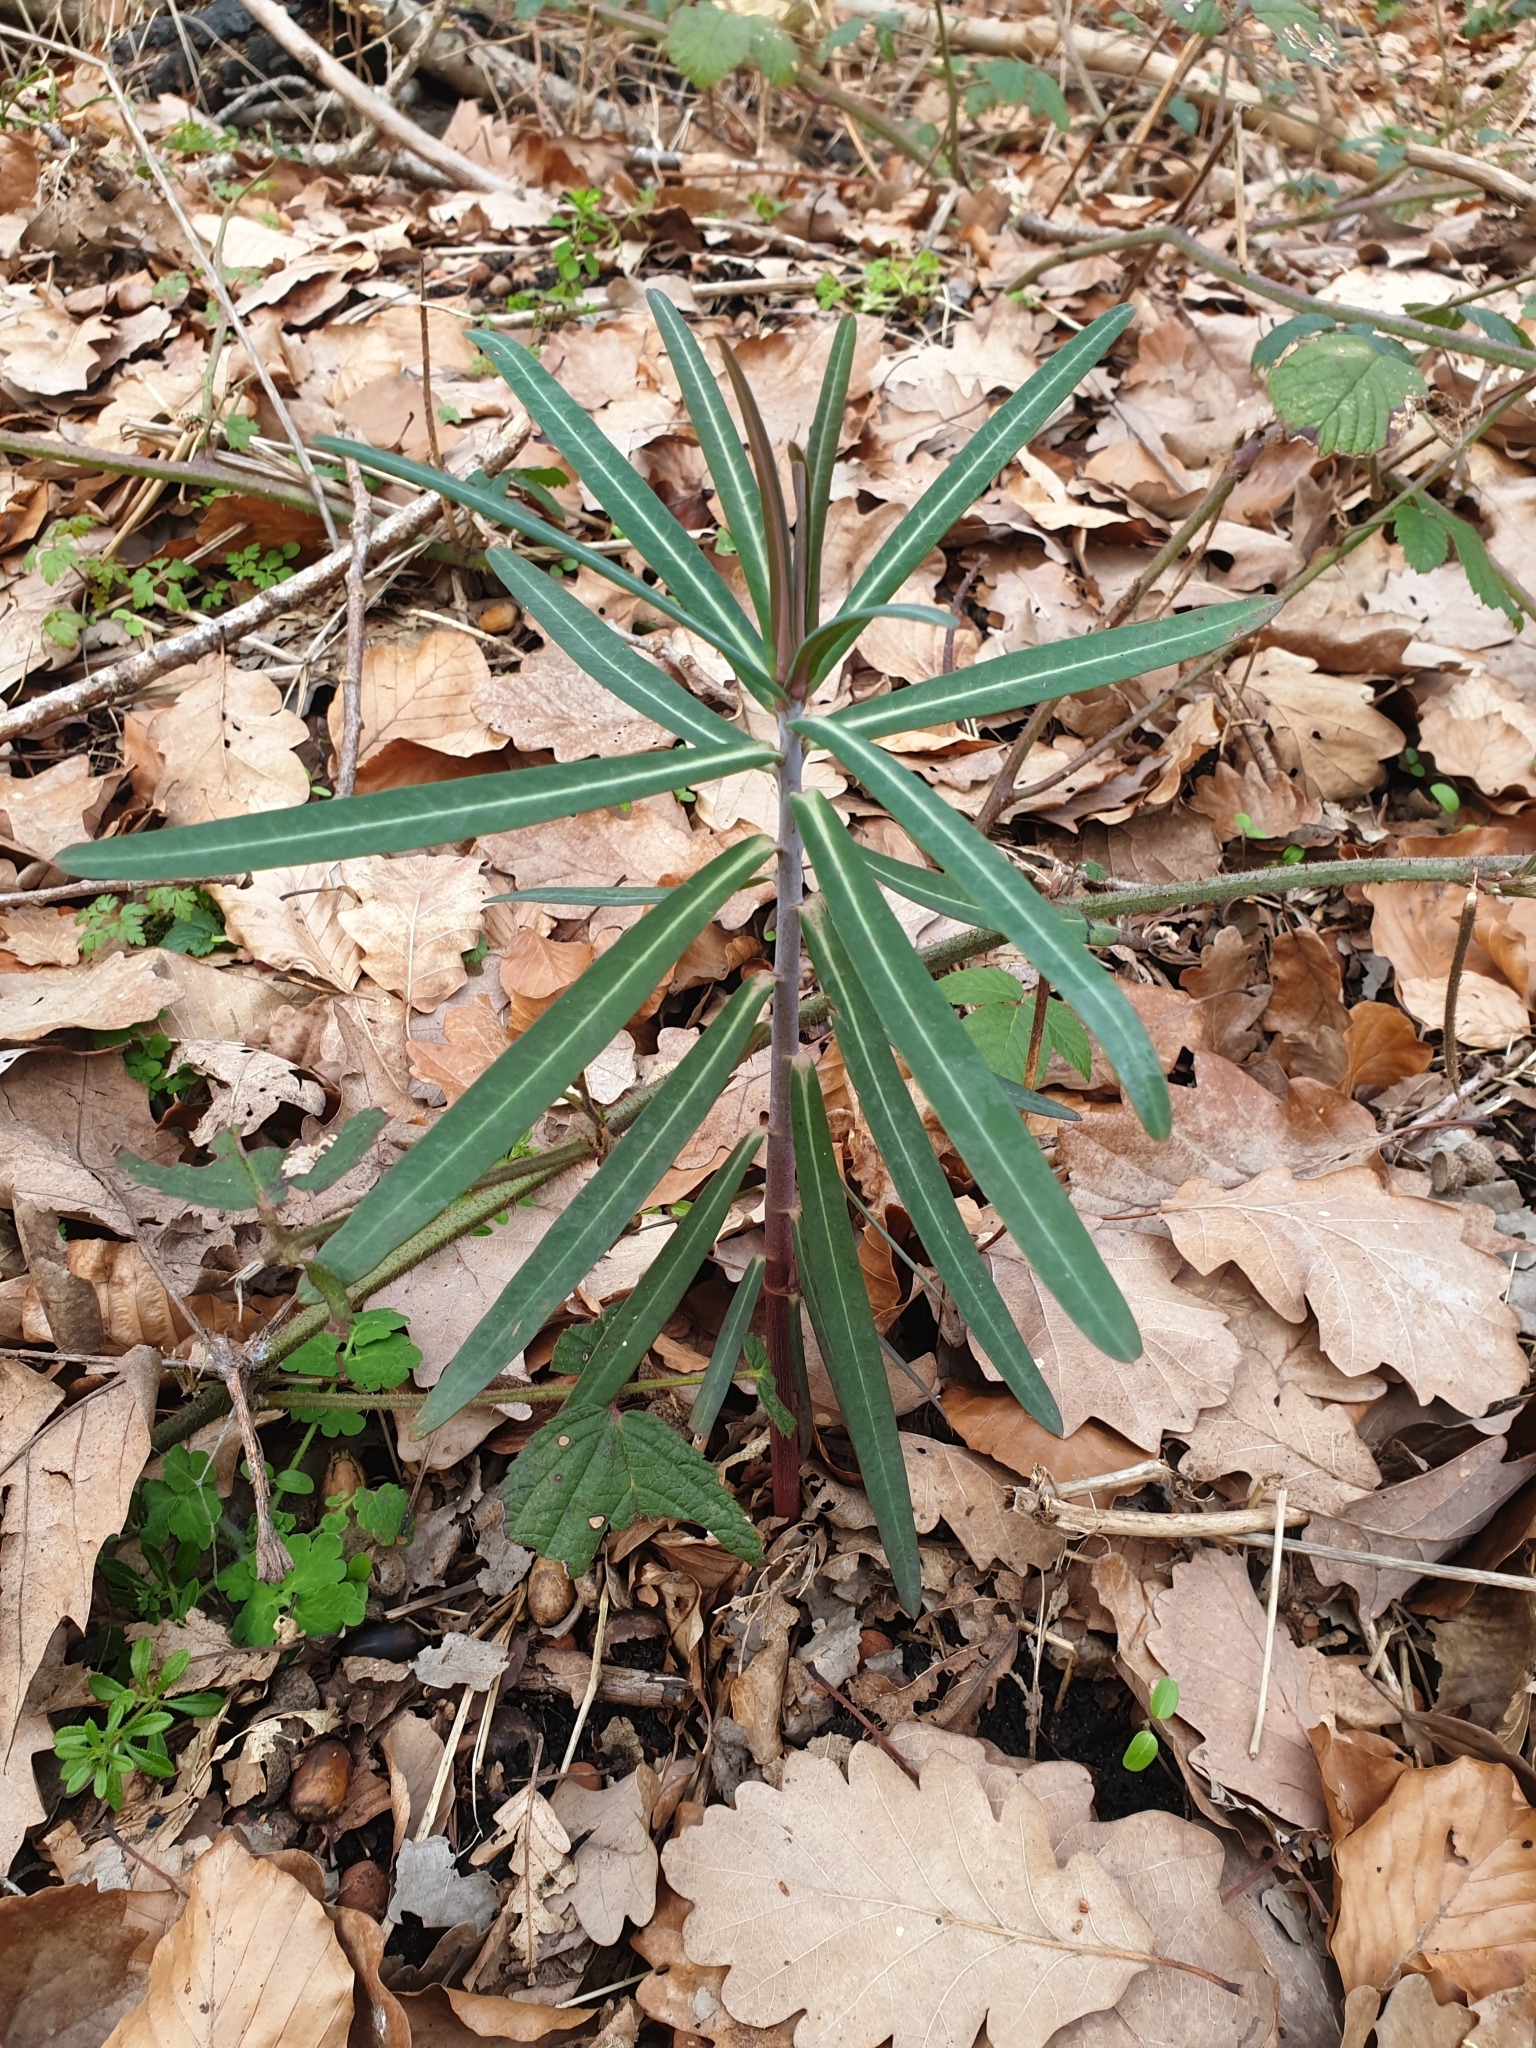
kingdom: Plantae
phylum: Tracheophyta
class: Magnoliopsida
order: Malpighiales
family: Euphorbiaceae
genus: Euphorbia
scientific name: Euphorbia lathyris
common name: Caper spurge
